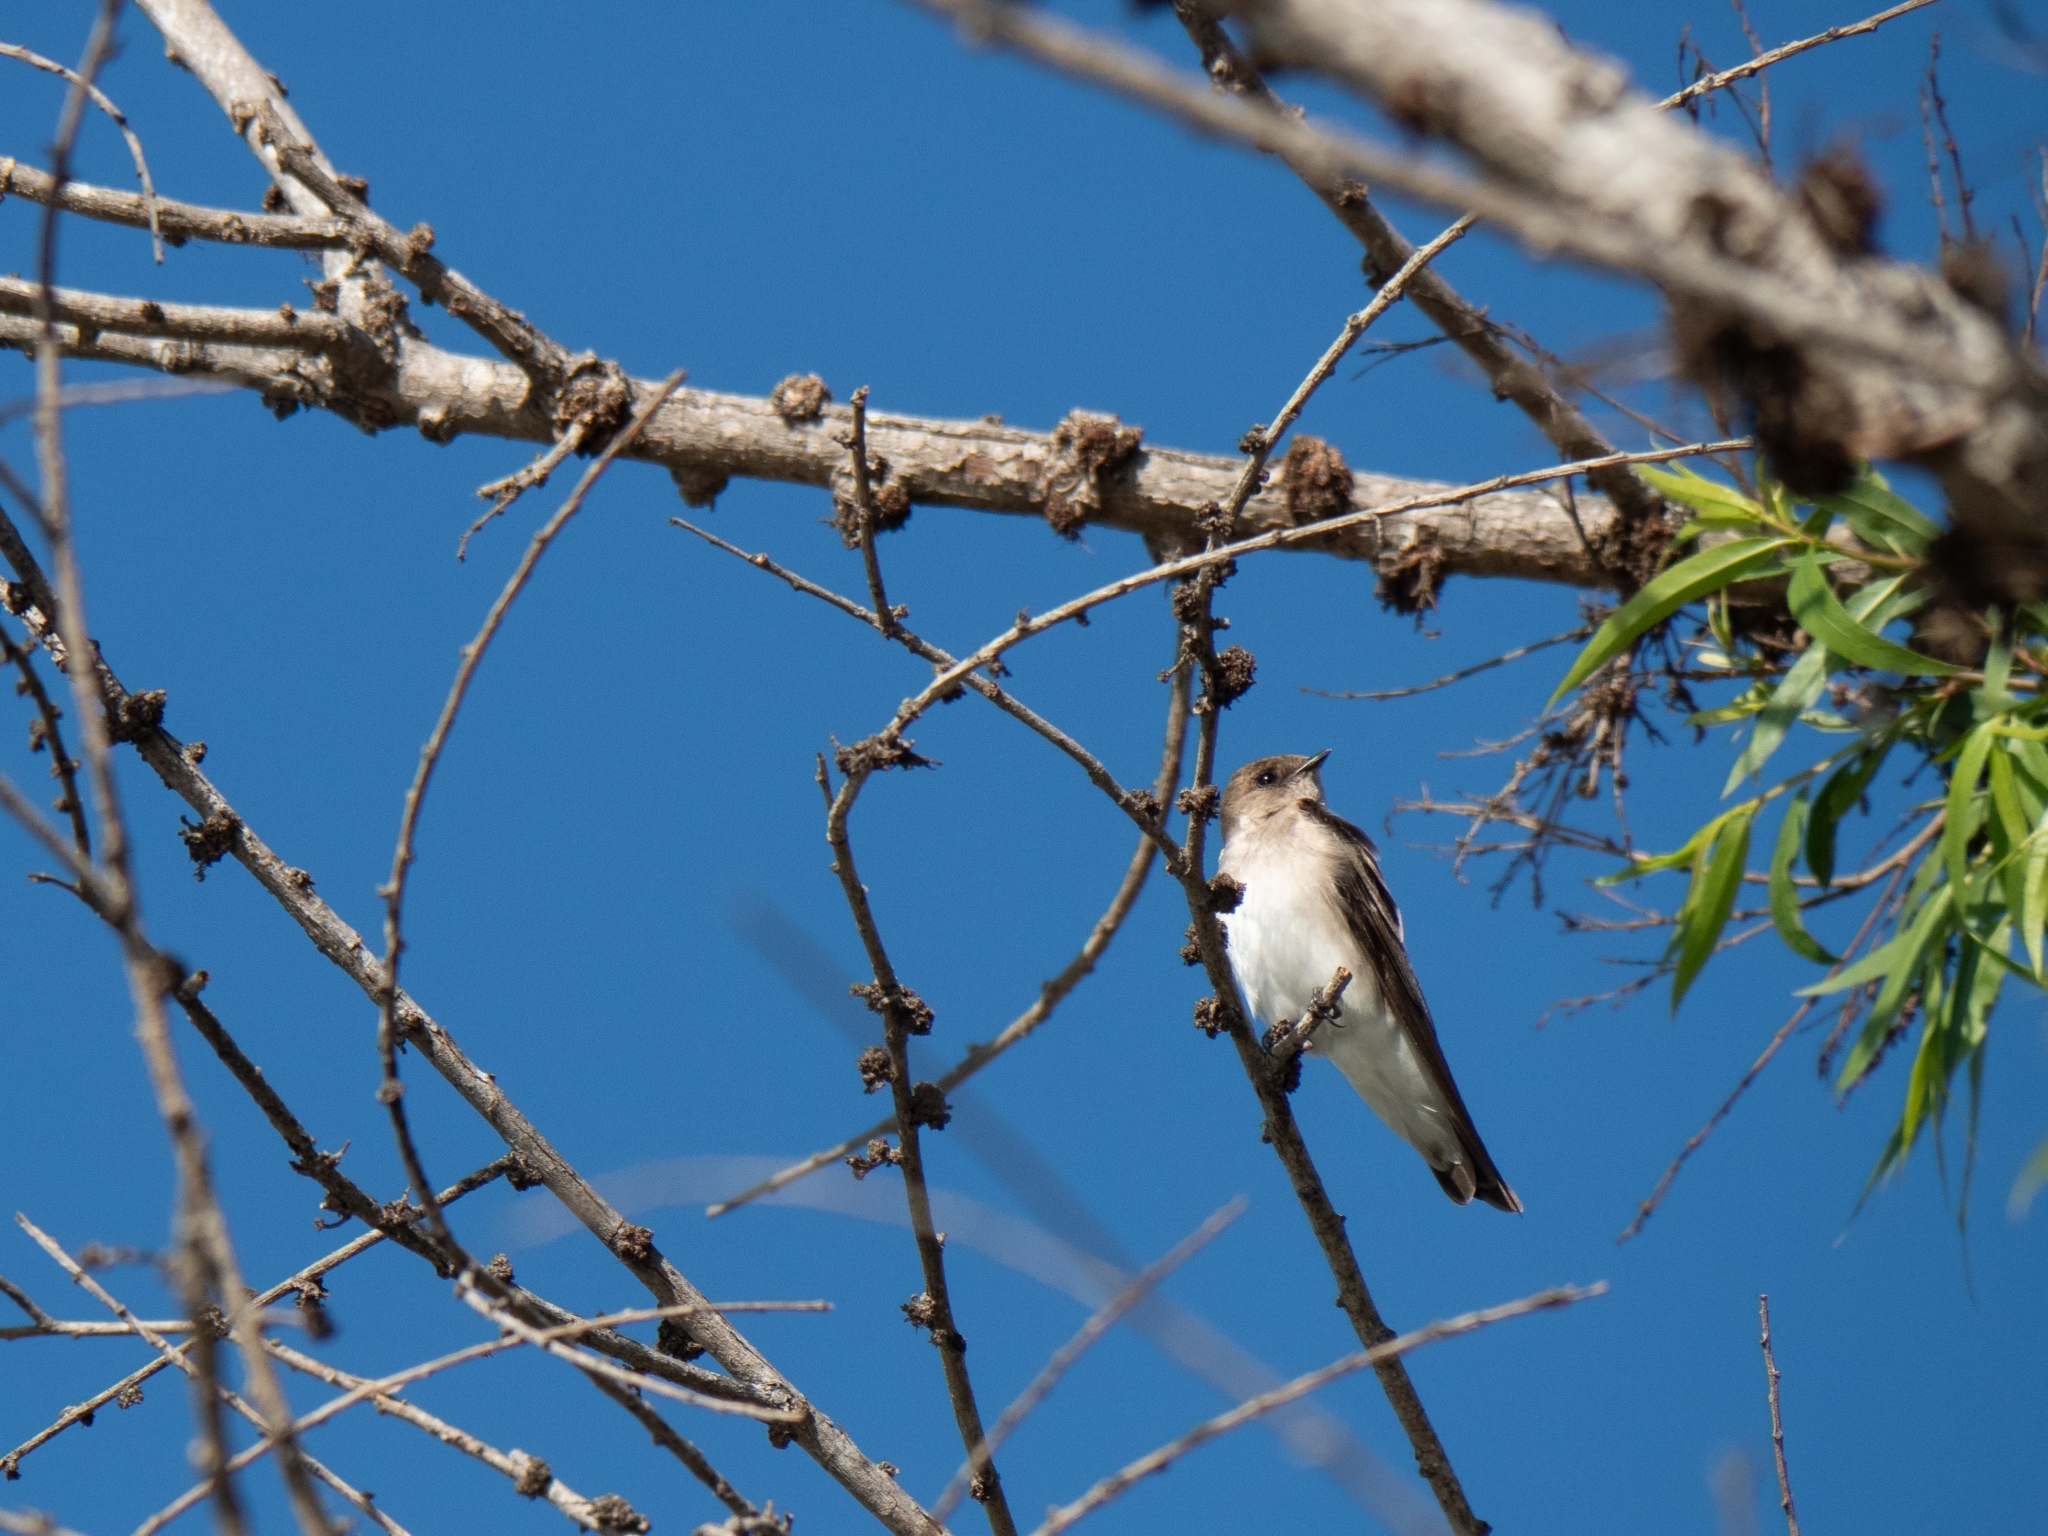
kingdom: Animalia
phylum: Chordata
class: Aves
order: Passeriformes
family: Hirundinidae
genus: Stelgidopteryx
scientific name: Stelgidopteryx serripennis
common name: Northern rough-winged swallow
